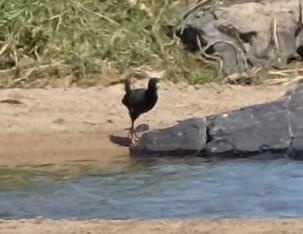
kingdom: Animalia
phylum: Chordata
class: Aves
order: Gruiformes
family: Rallidae
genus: Amaurornis
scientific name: Amaurornis flavirostra
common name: Black crake
